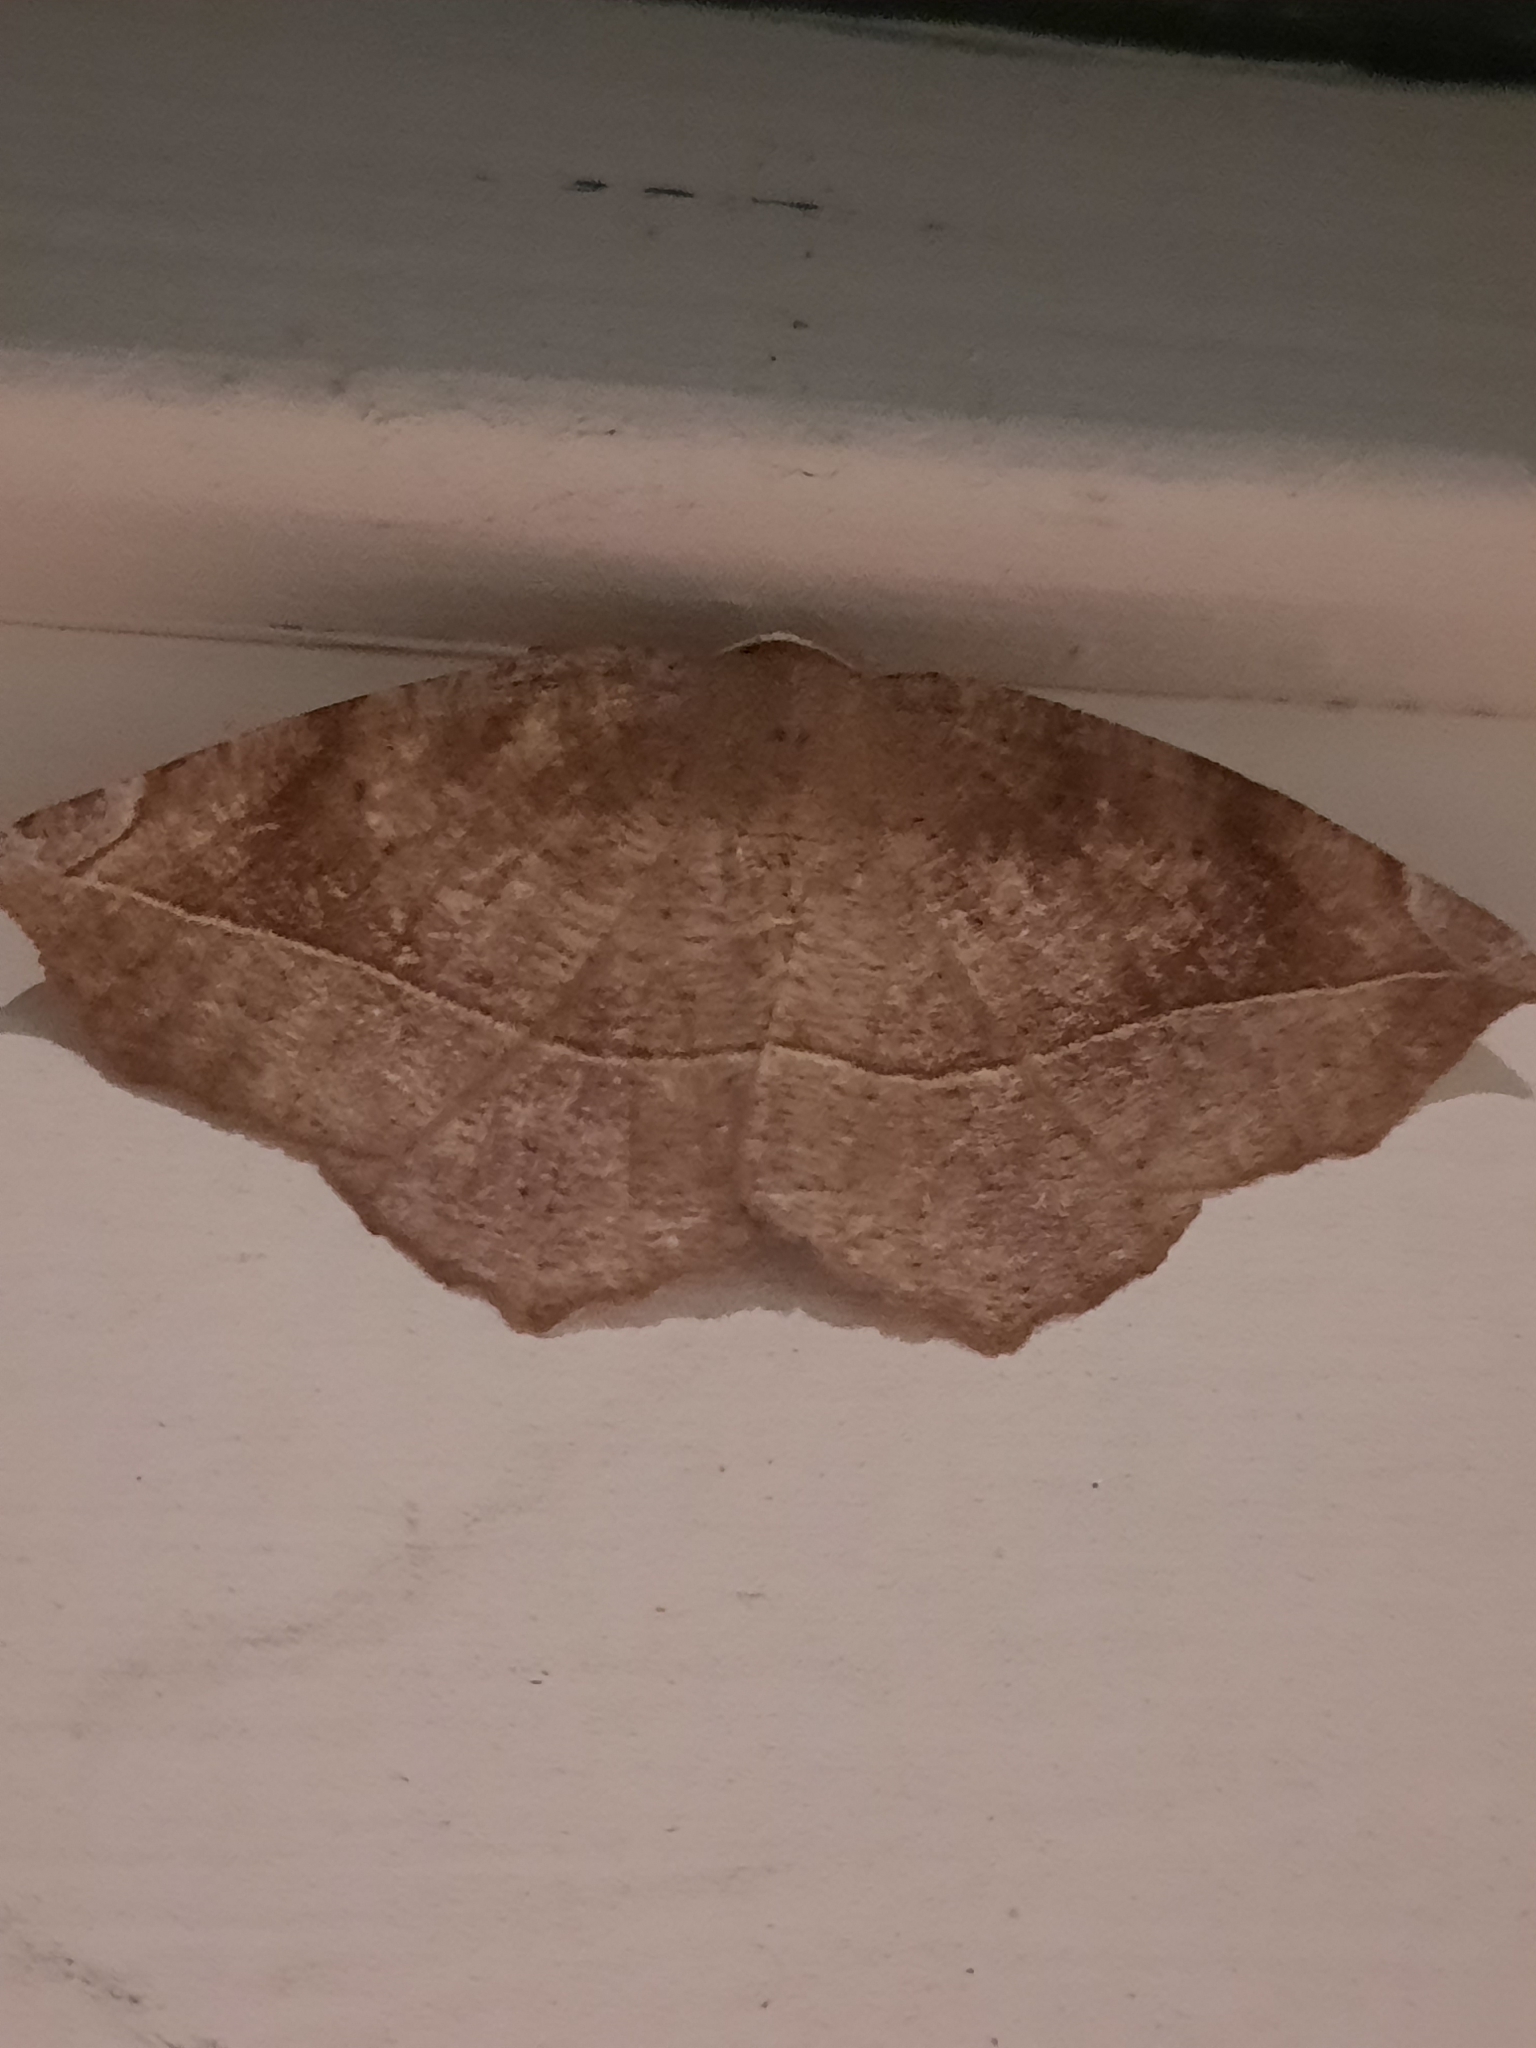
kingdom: Animalia
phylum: Arthropoda
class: Insecta
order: Lepidoptera
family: Geometridae
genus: Eutrapela
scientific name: Eutrapela clemataria
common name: Curved-toothed geometer
